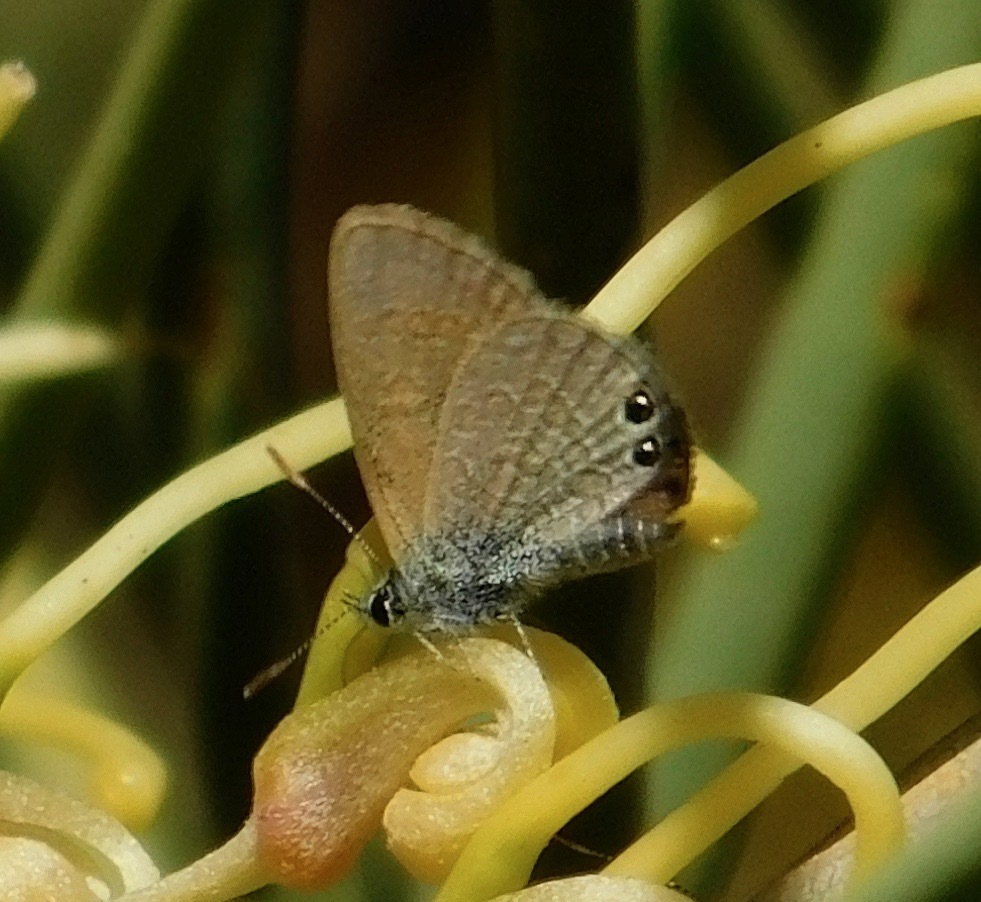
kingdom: Animalia
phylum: Arthropoda
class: Insecta
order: Lepidoptera
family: Lycaenidae
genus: Nacaduba
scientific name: Nacaduba biocellata
